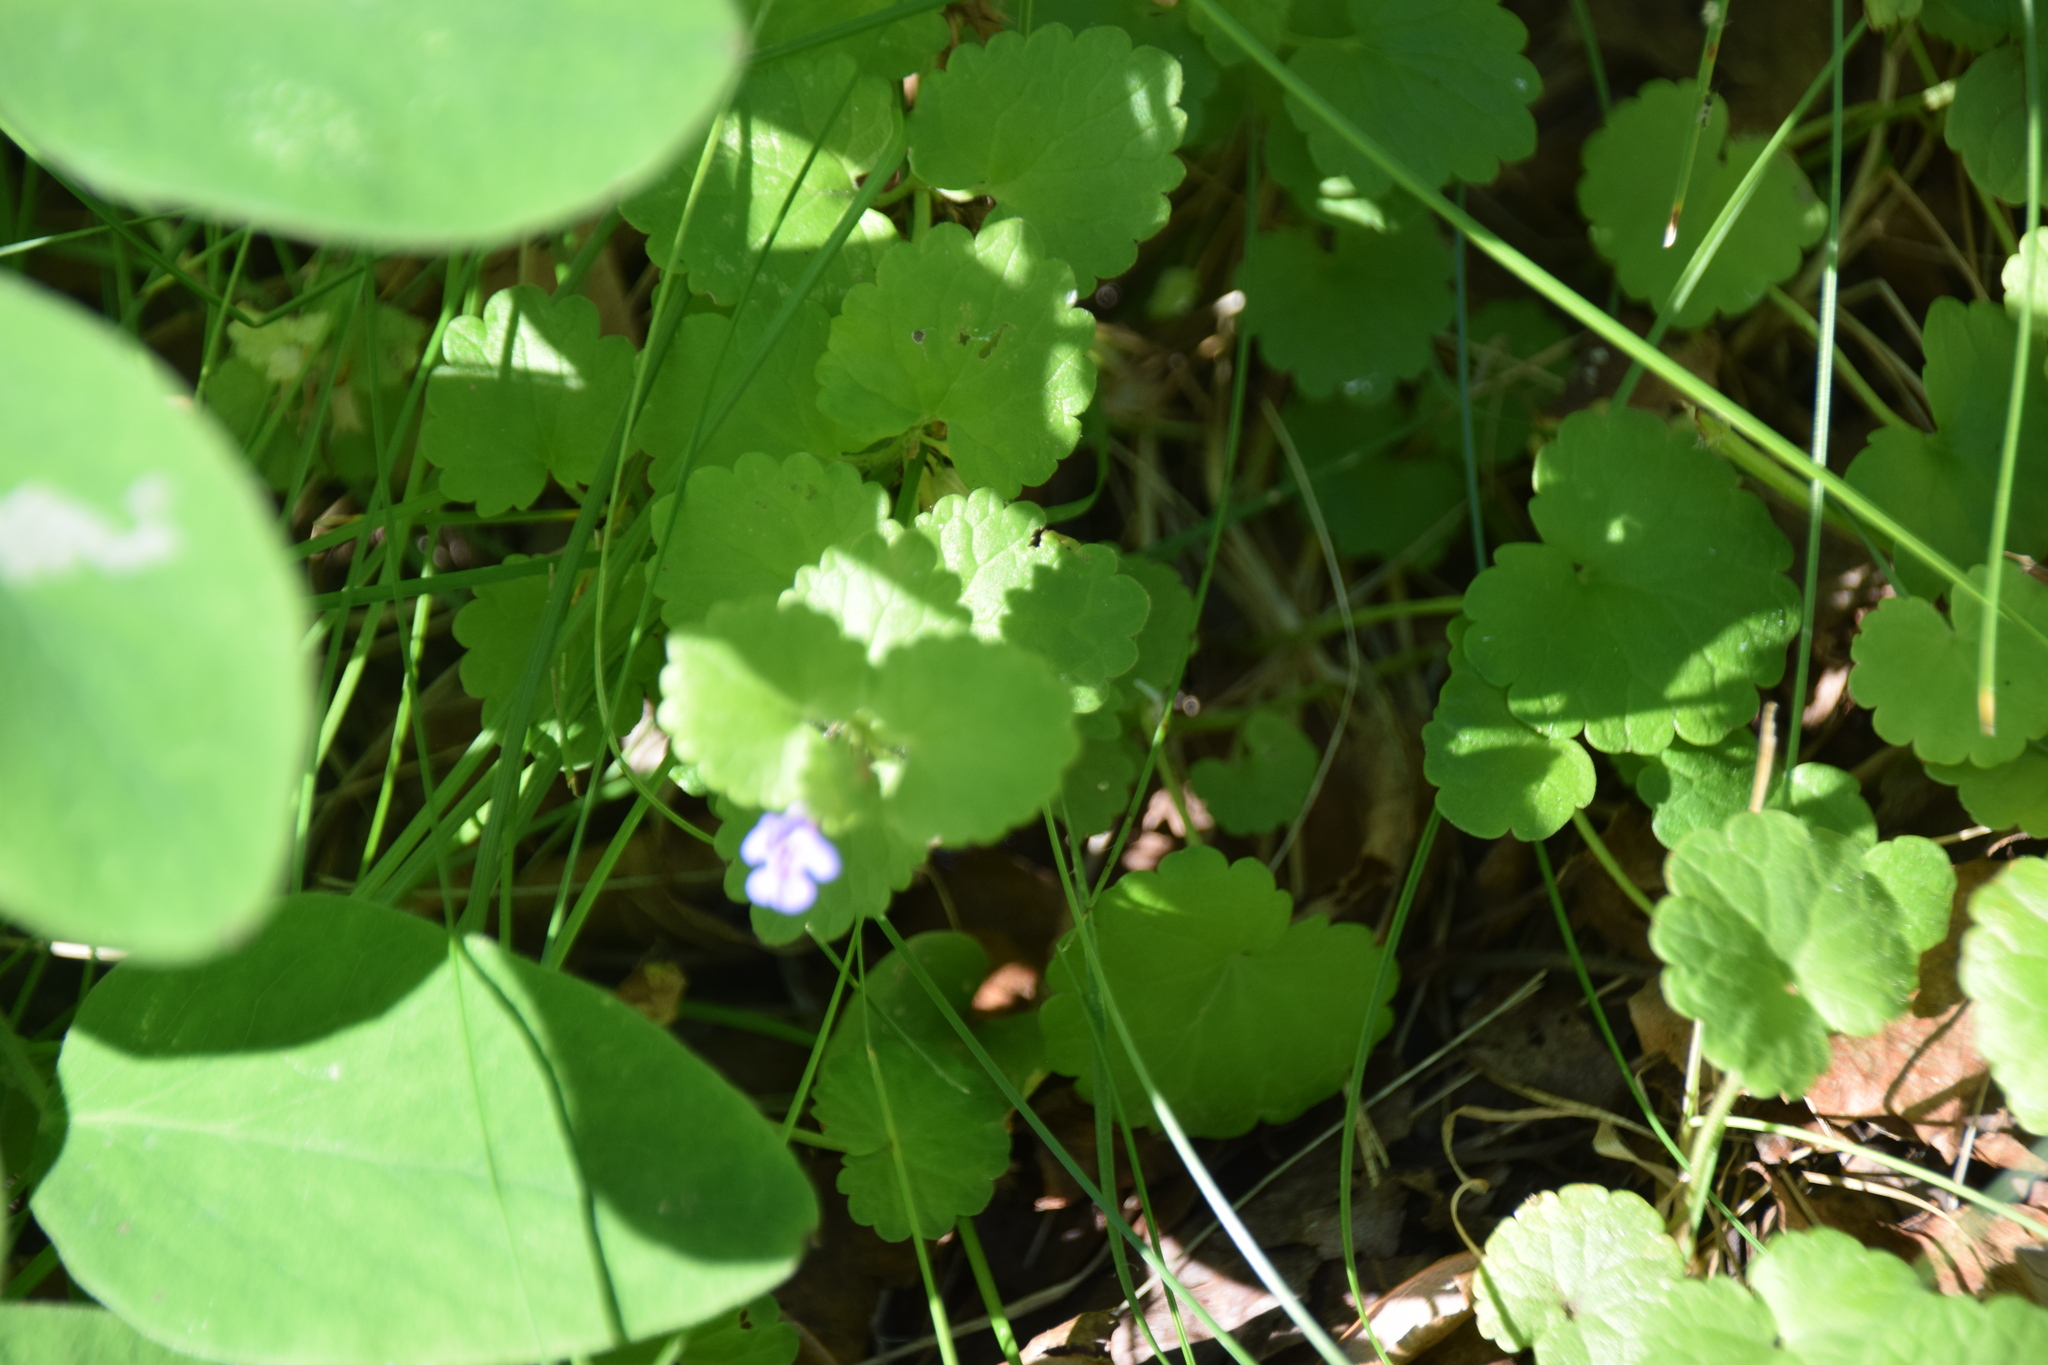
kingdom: Plantae
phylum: Tracheophyta
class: Magnoliopsida
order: Lamiales
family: Lamiaceae
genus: Glechoma
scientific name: Glechoma hederacea
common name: Ground ivy
